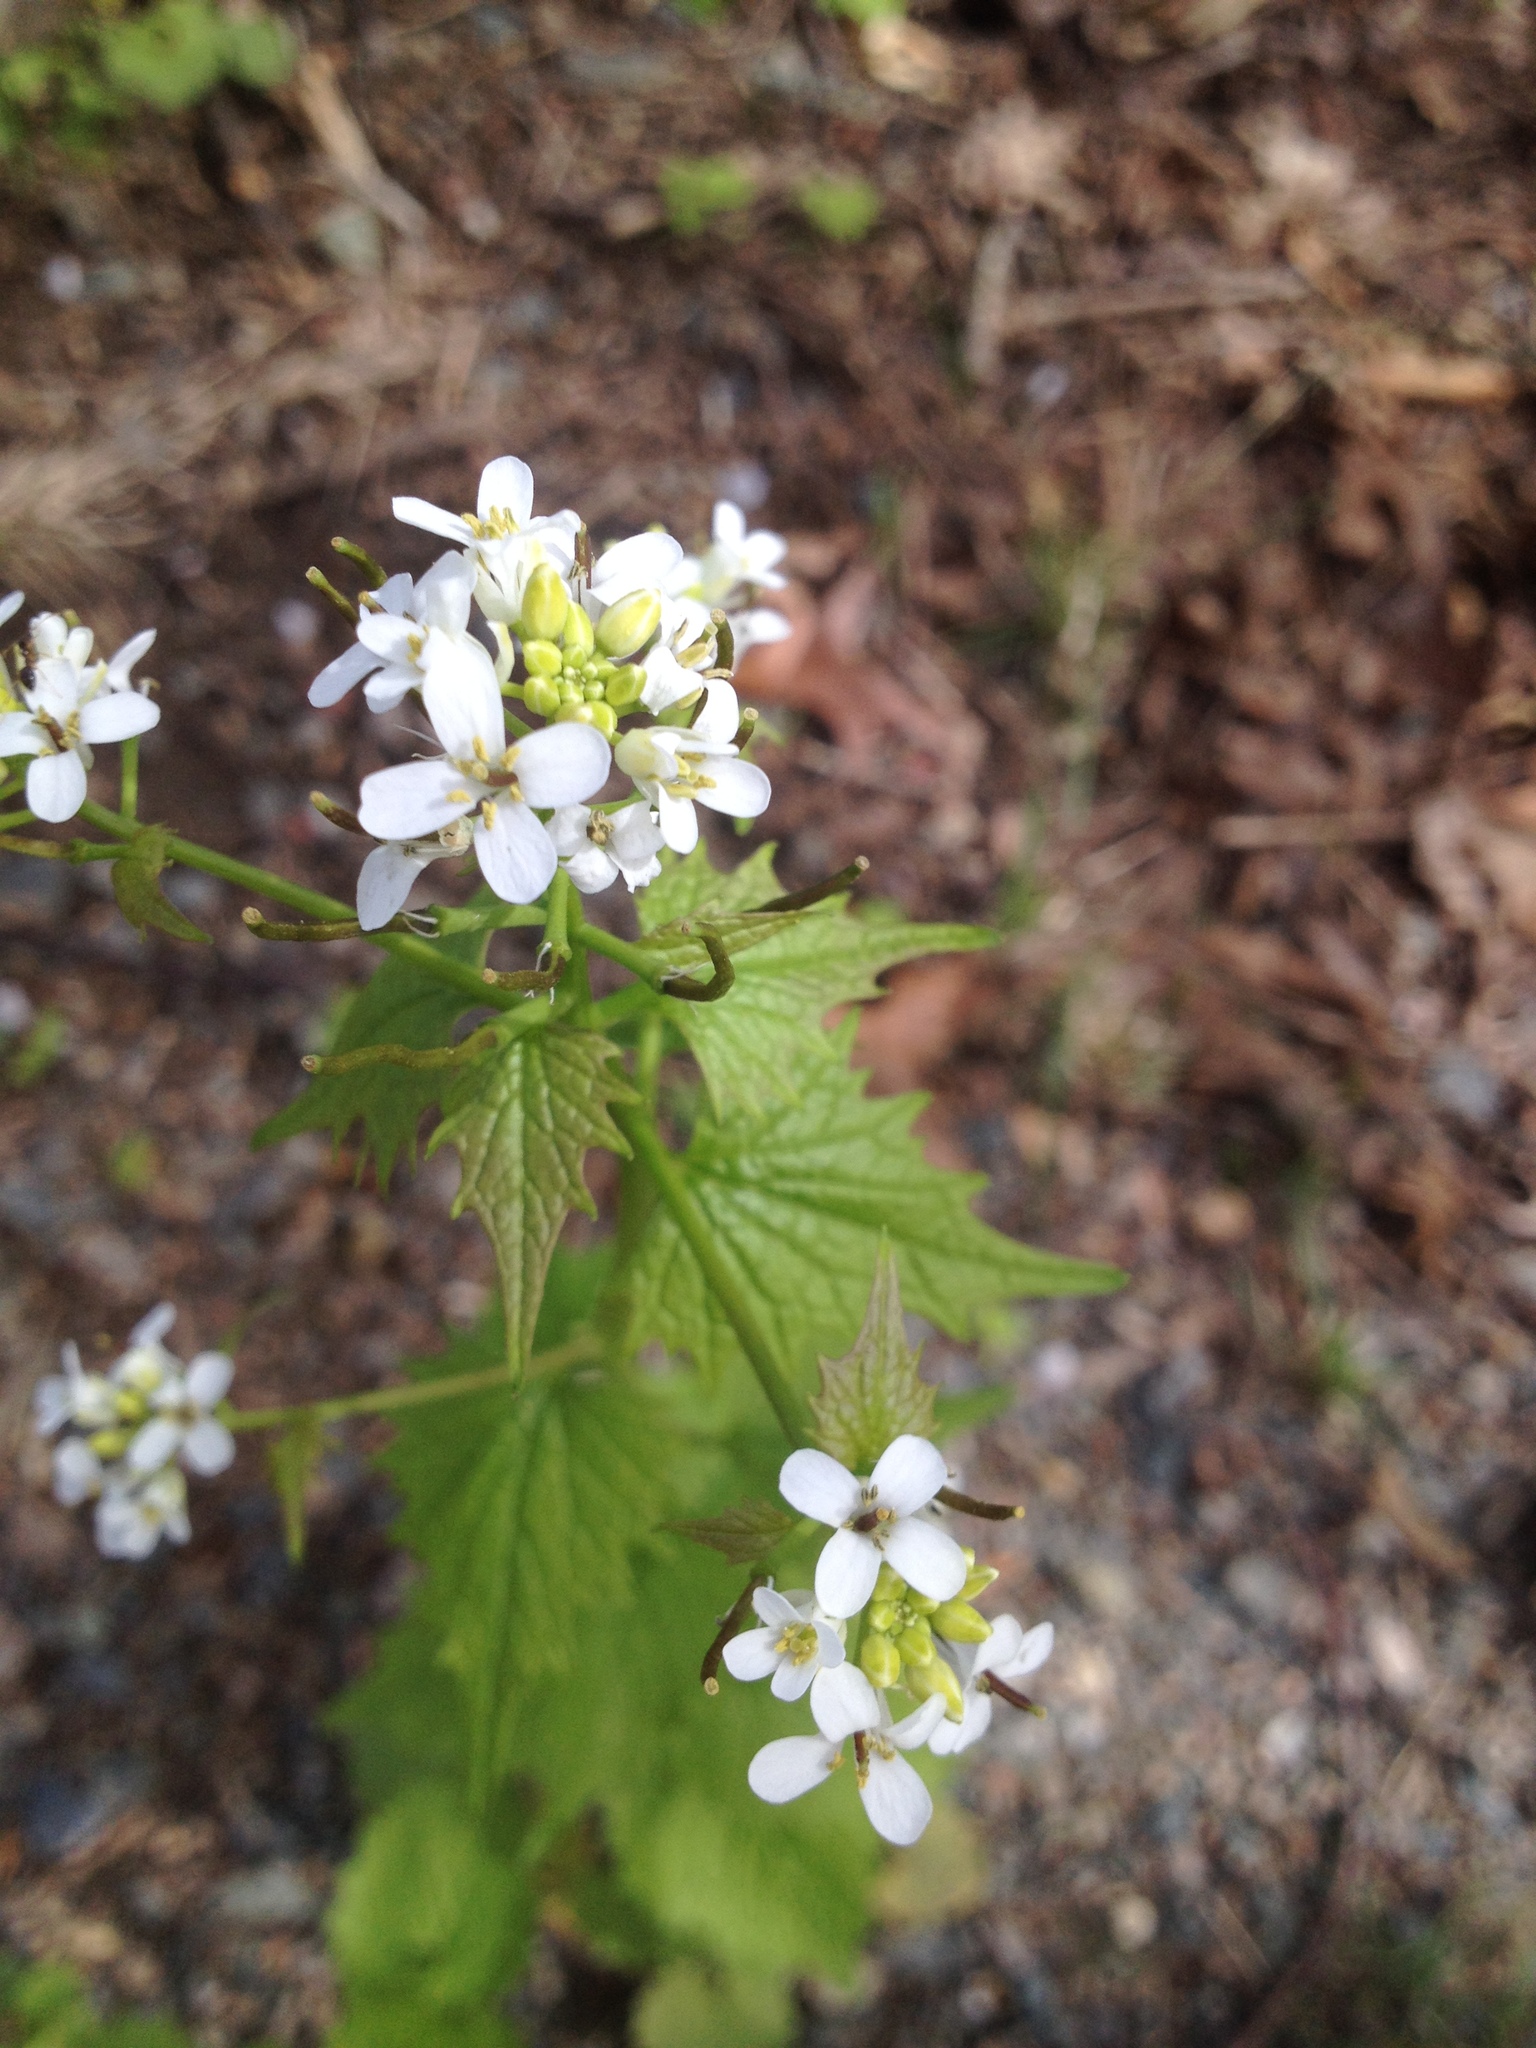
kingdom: Plantae
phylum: Tracheophyta
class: Magnoliopsida
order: Brassicales
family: Brassicaceae
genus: Alliaria
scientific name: Alliaria petiolata
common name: Garlic mustard
